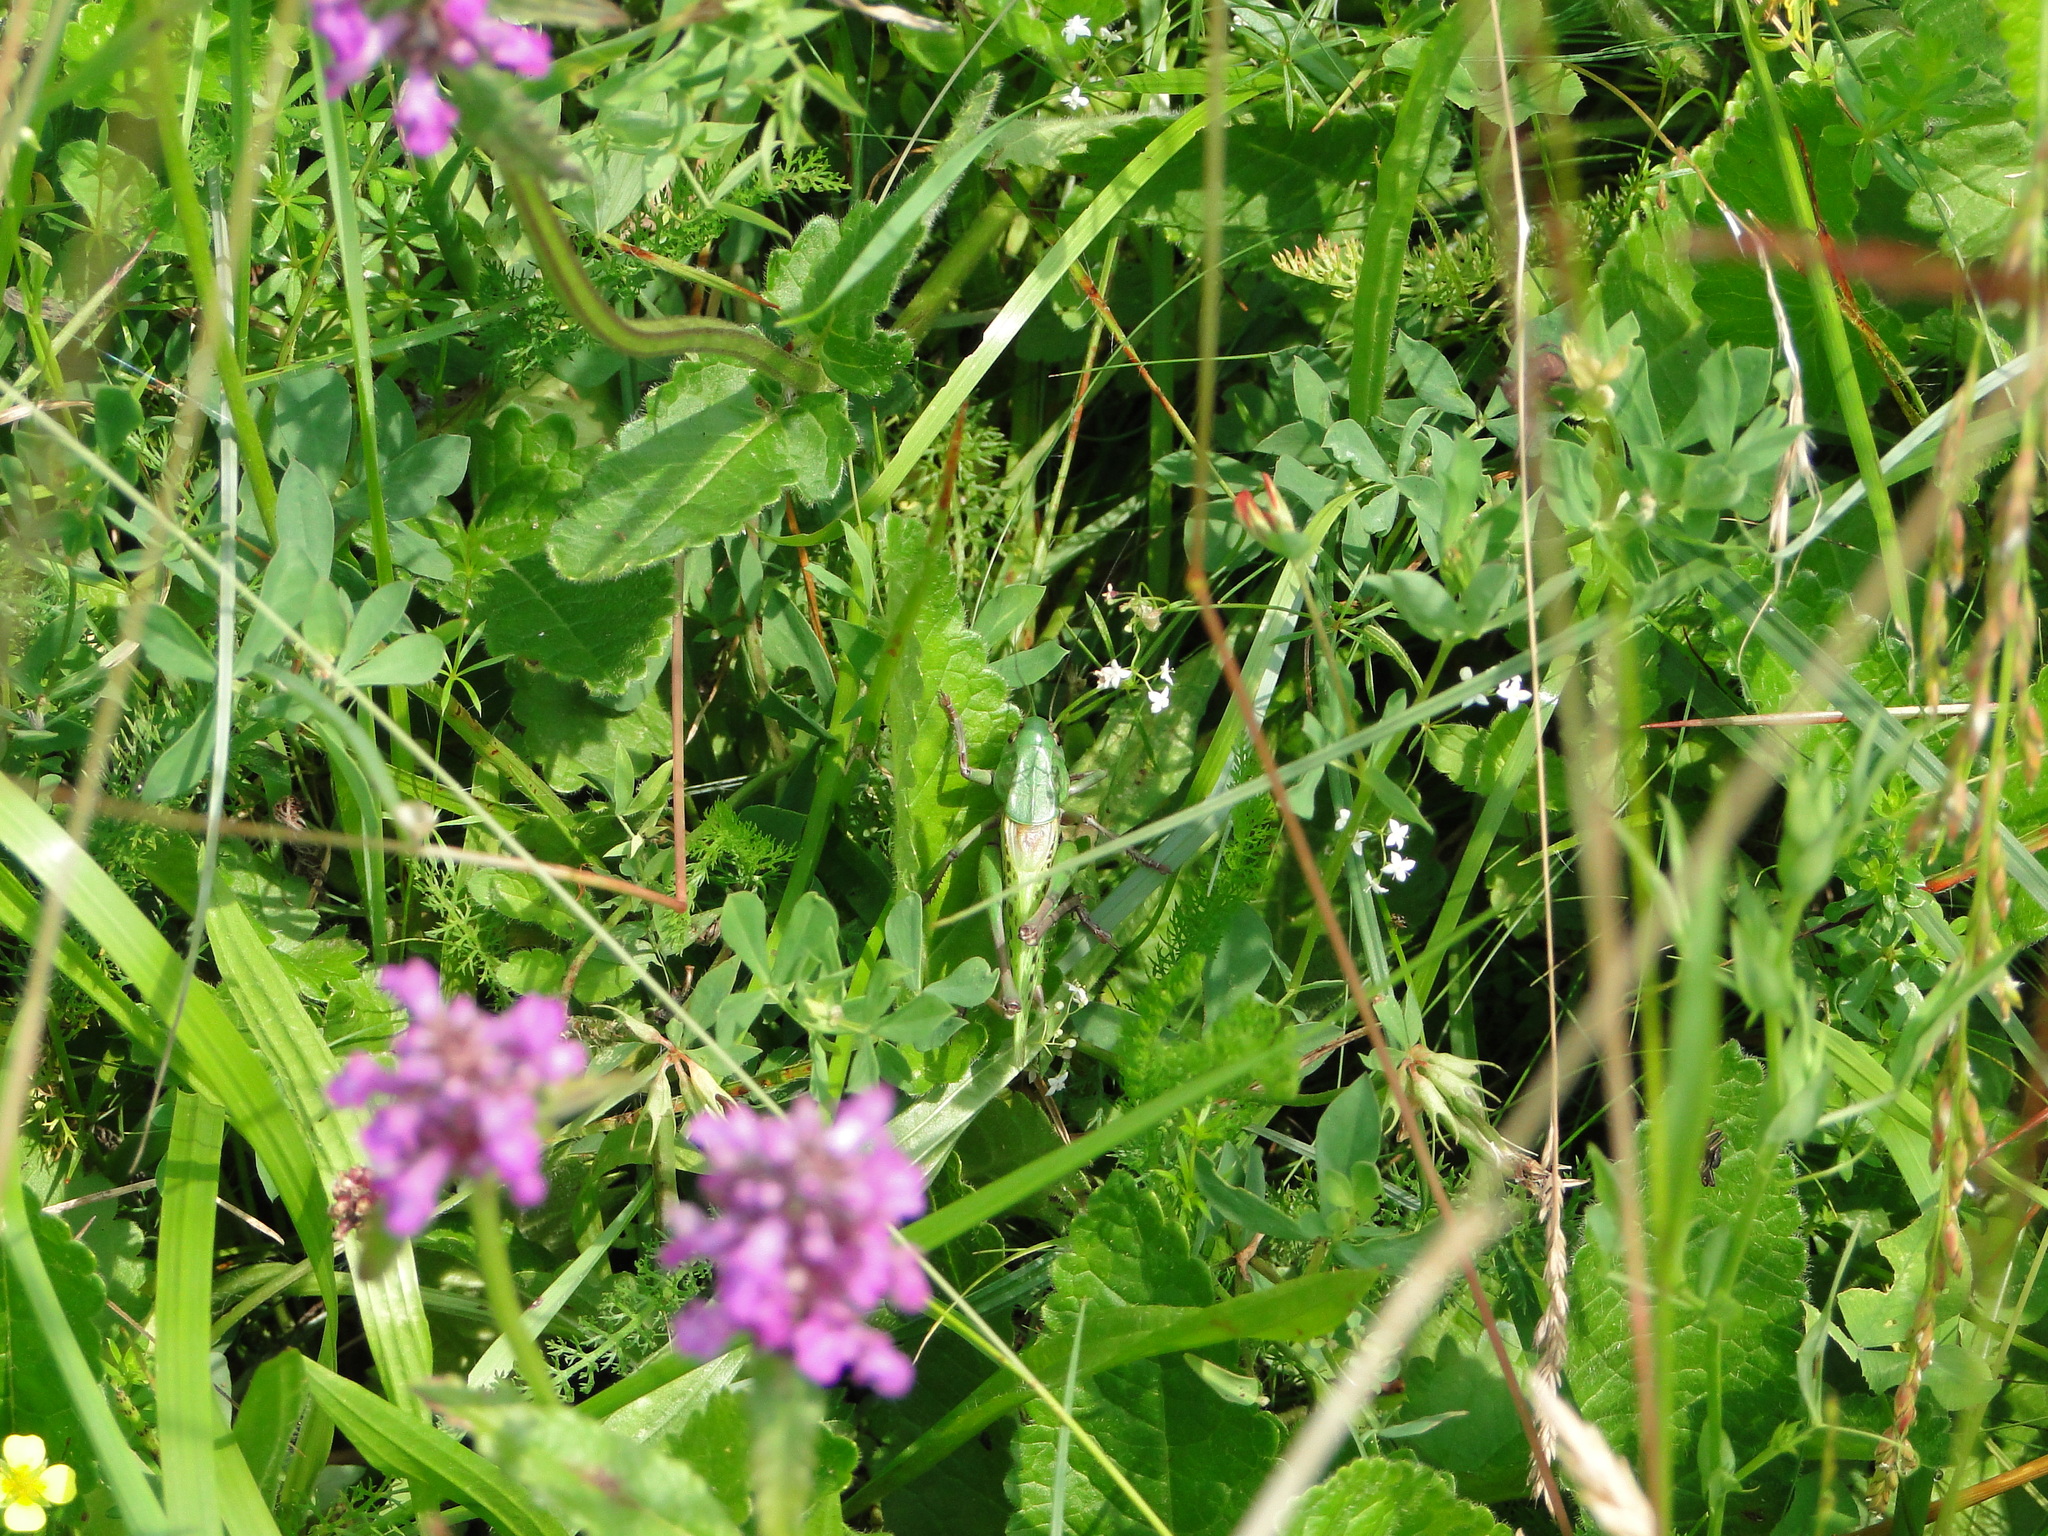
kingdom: Animalia
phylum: Arthropoda
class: Insecta
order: Orthoptera
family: Tettigoniidae
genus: Decticus
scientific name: Decticus verrucivorus
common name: Wart-biter
